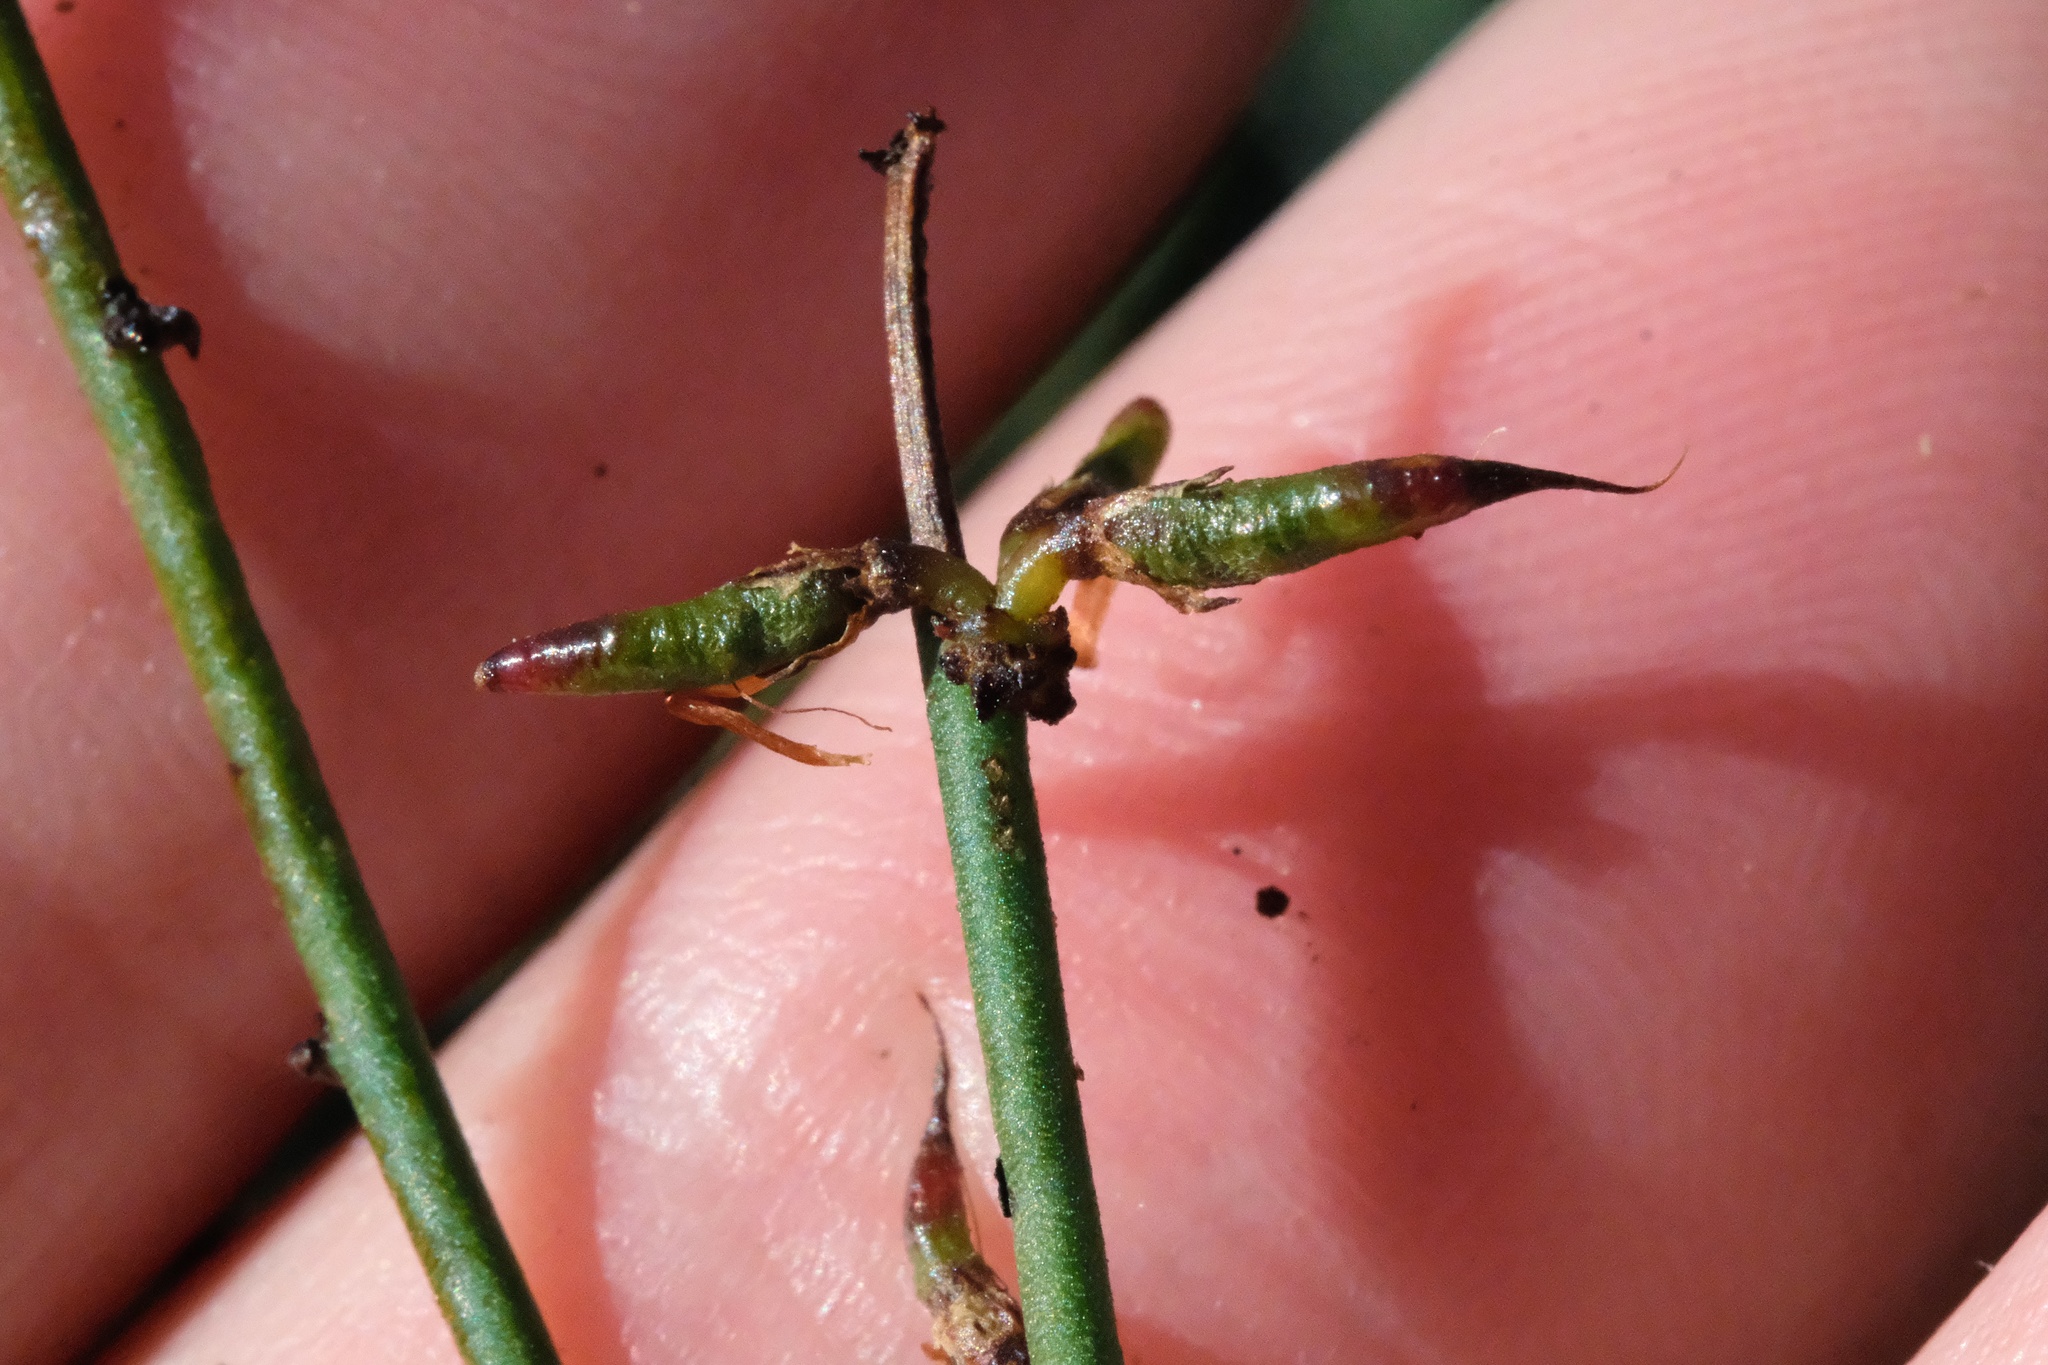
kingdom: Plantae
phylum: Tracheophyta
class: Magnoliopsida
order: Fabales
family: Fabaceae
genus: Acmispon
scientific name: Acmispon glaber
